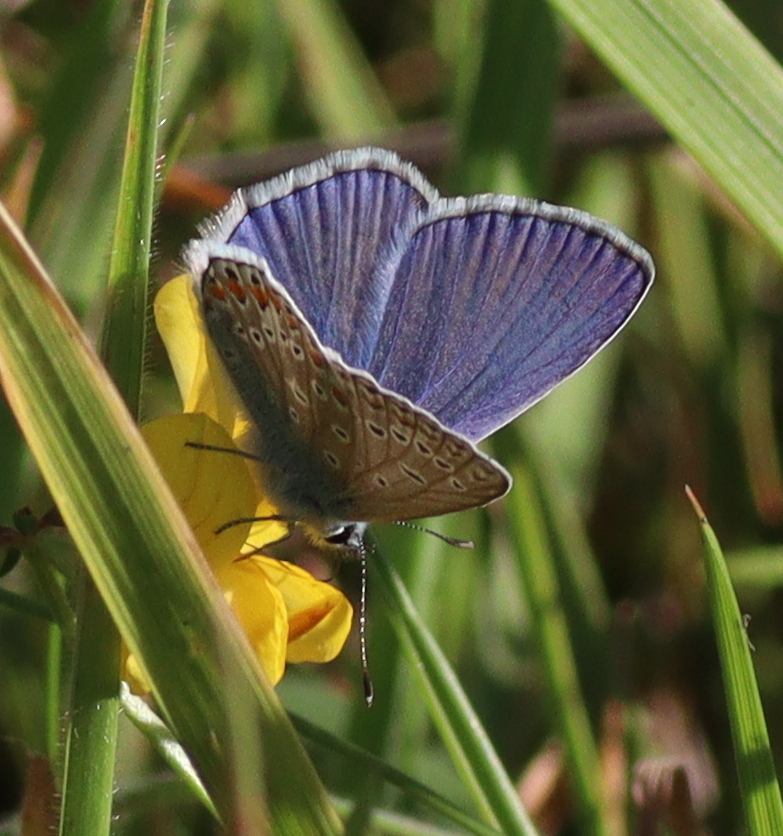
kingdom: Animalia
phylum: Arthropoda
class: Insecta
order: Lepidoptera
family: Lycaenidae
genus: Polyommatus
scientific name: Polyommatus icarus
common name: Common blue
